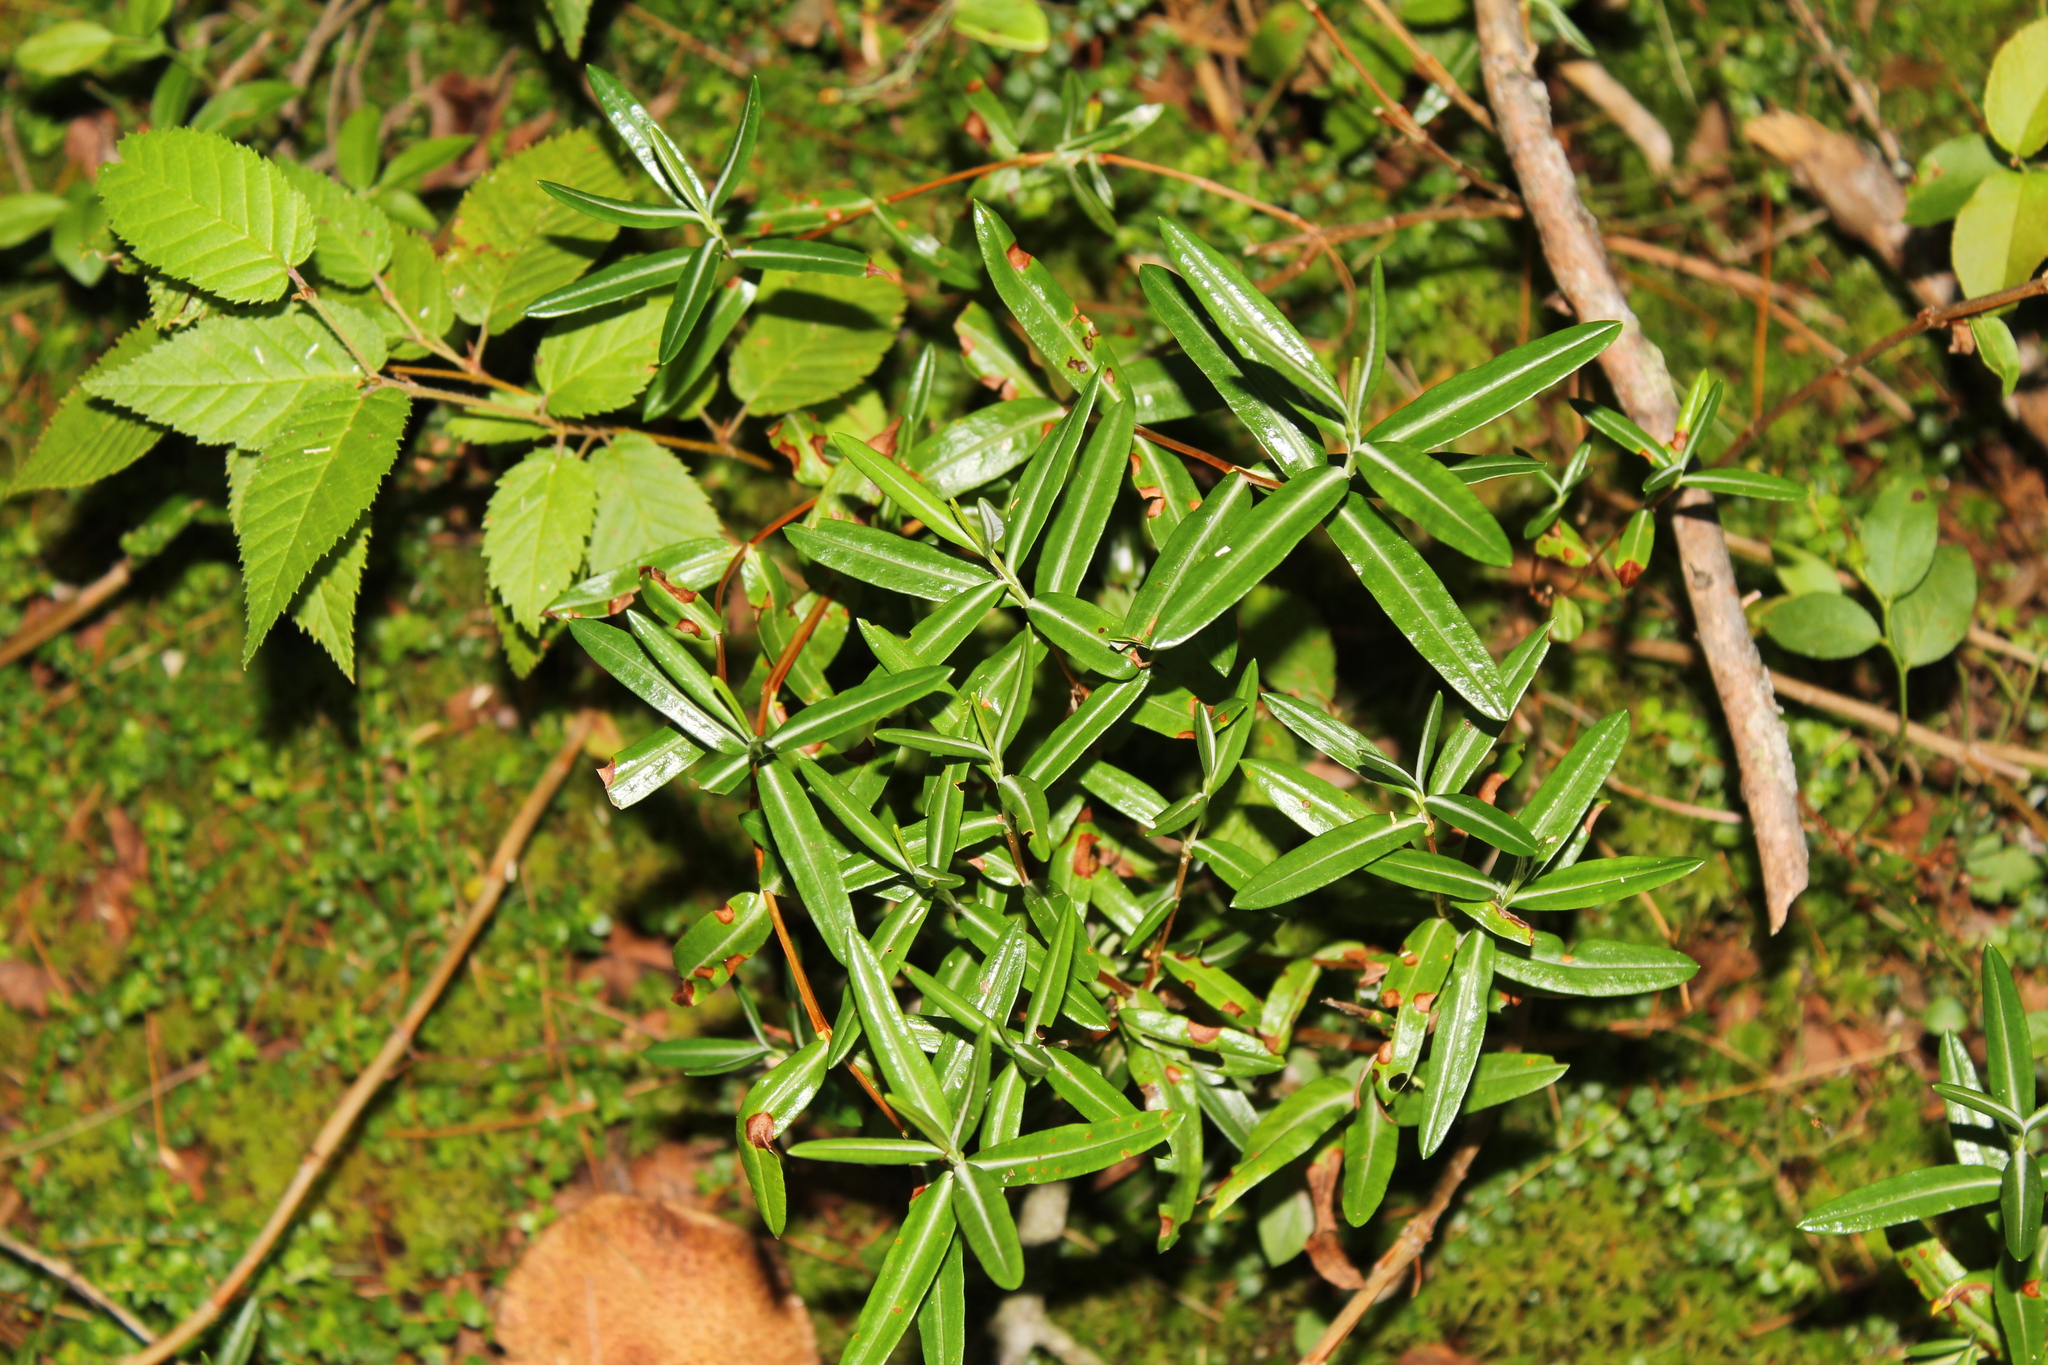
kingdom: Plantae
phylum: Tracheophyta
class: Magnoliopsida
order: Ericales
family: Ericaceae
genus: Kalmia
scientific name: Kalmia polifolia
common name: Bog-laurel
